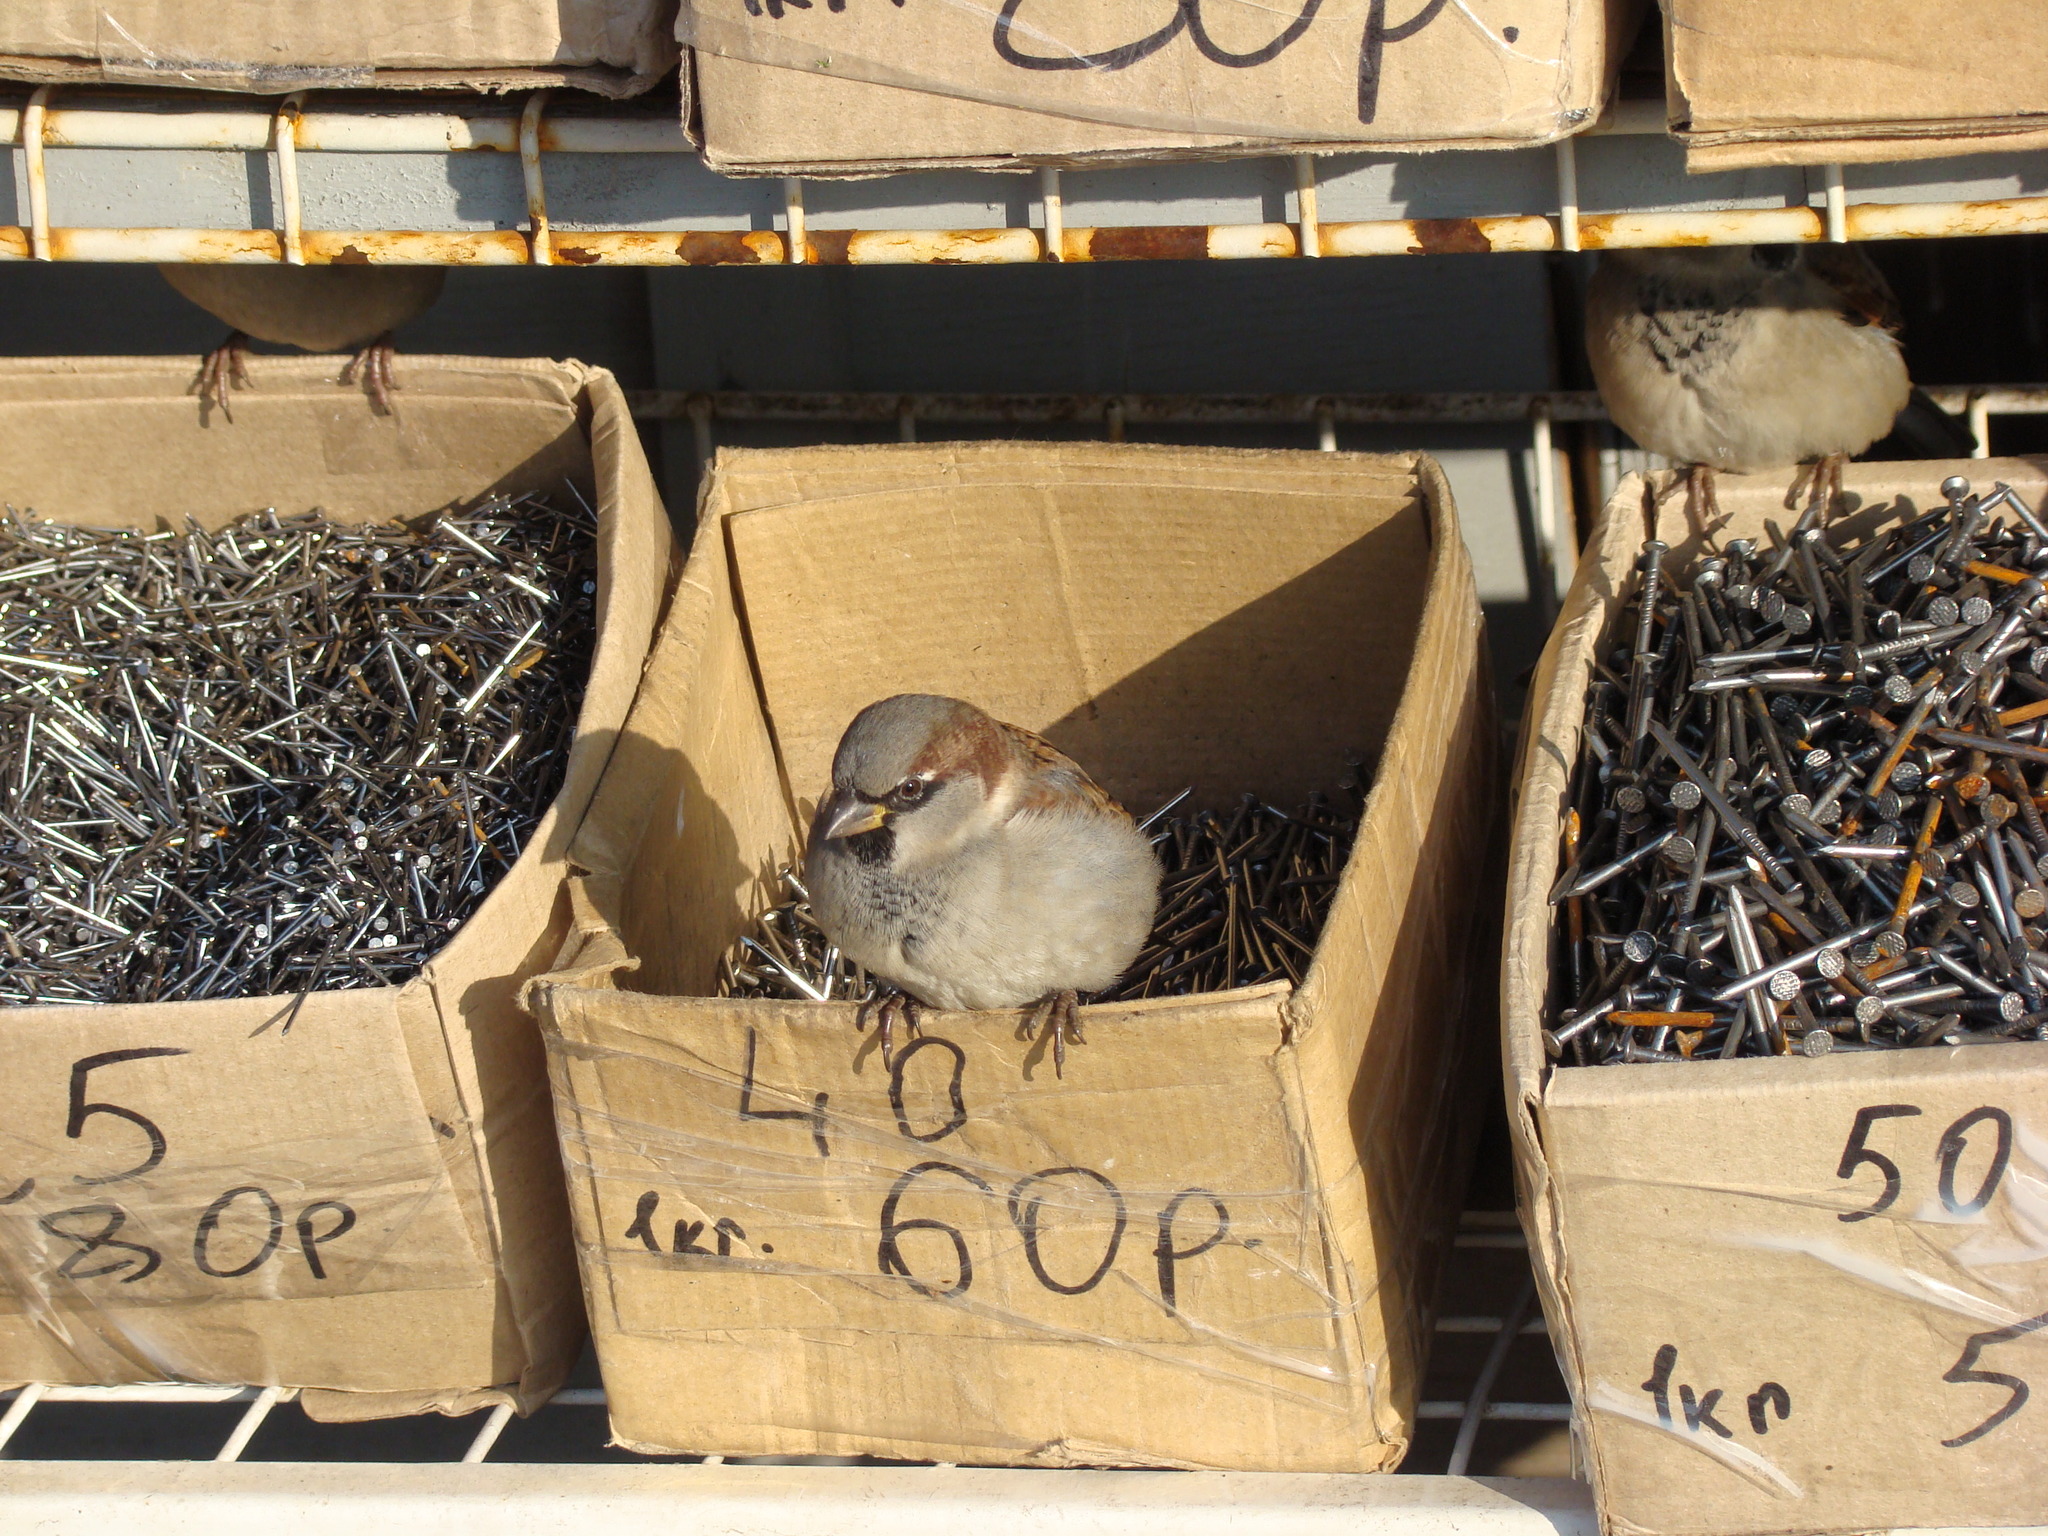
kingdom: Animalia
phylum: Chordata
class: Aves
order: Passeriformes
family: Passeridae
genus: Passer
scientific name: Passer domesticus
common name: House sparrow
